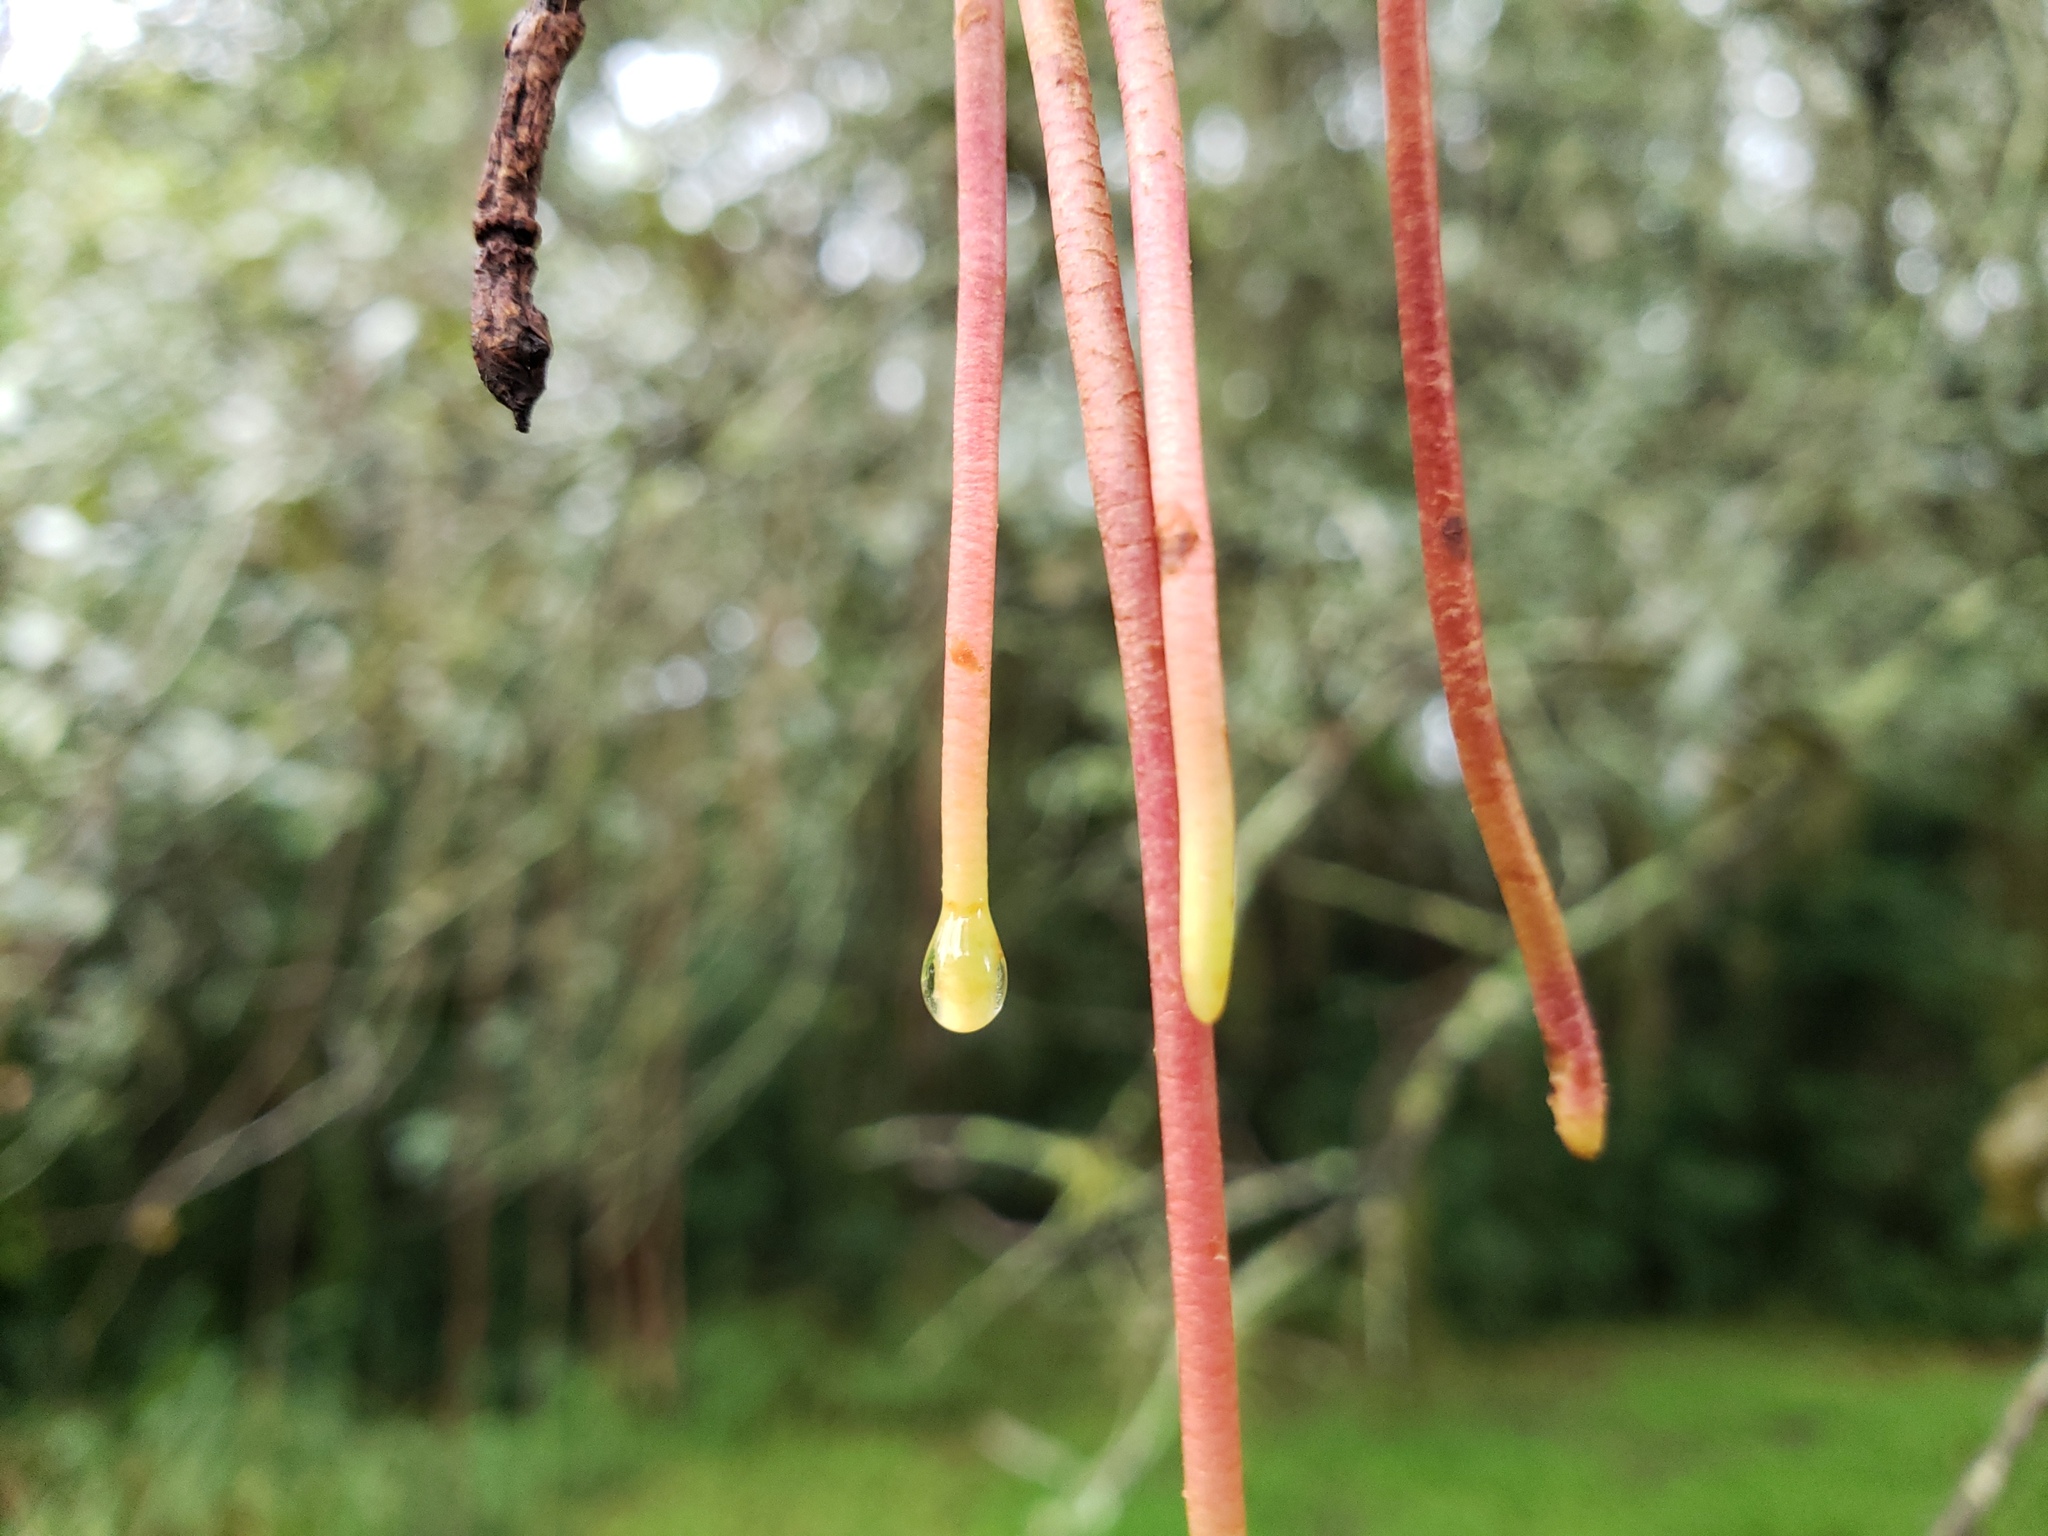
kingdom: Plantae
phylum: Tracheophyta
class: Magnoliopsida
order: Vitales
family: Vitaceae
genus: Vitis
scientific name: Vitis rotundifolia
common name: Muscadine grape
